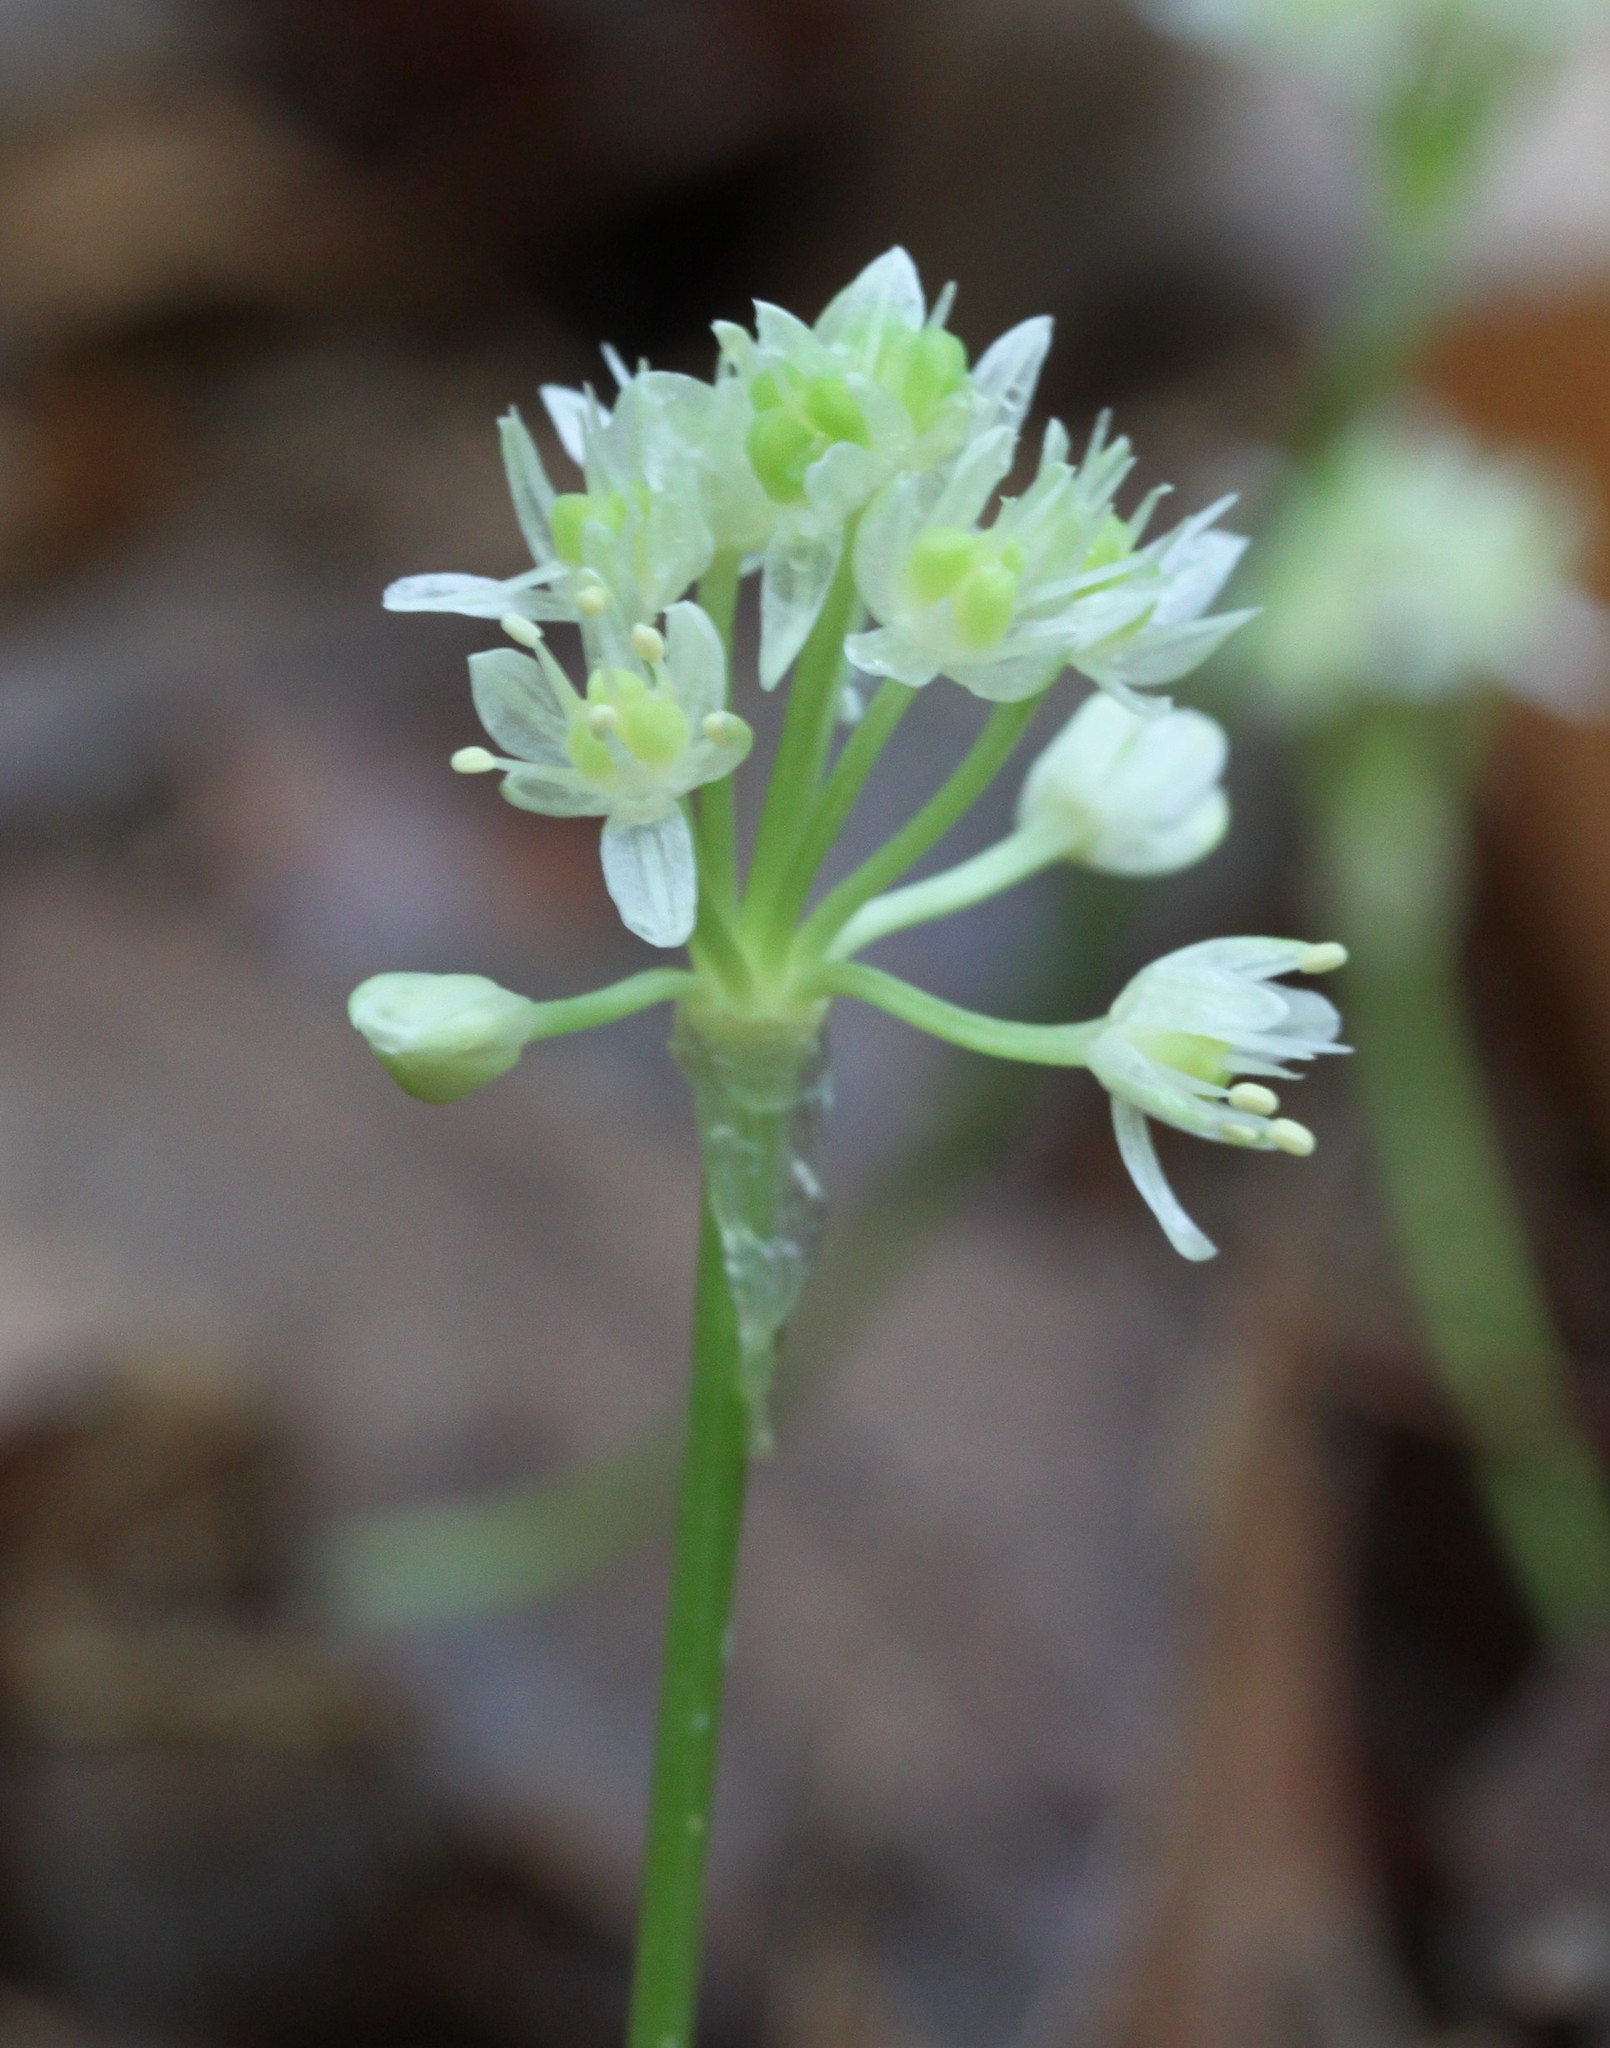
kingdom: Plantae
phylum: Tracheophyta
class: Liliopsida
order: Asparagales
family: Amaryllidaceae
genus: Allium
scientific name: Allium tricoccum
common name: Ramp
